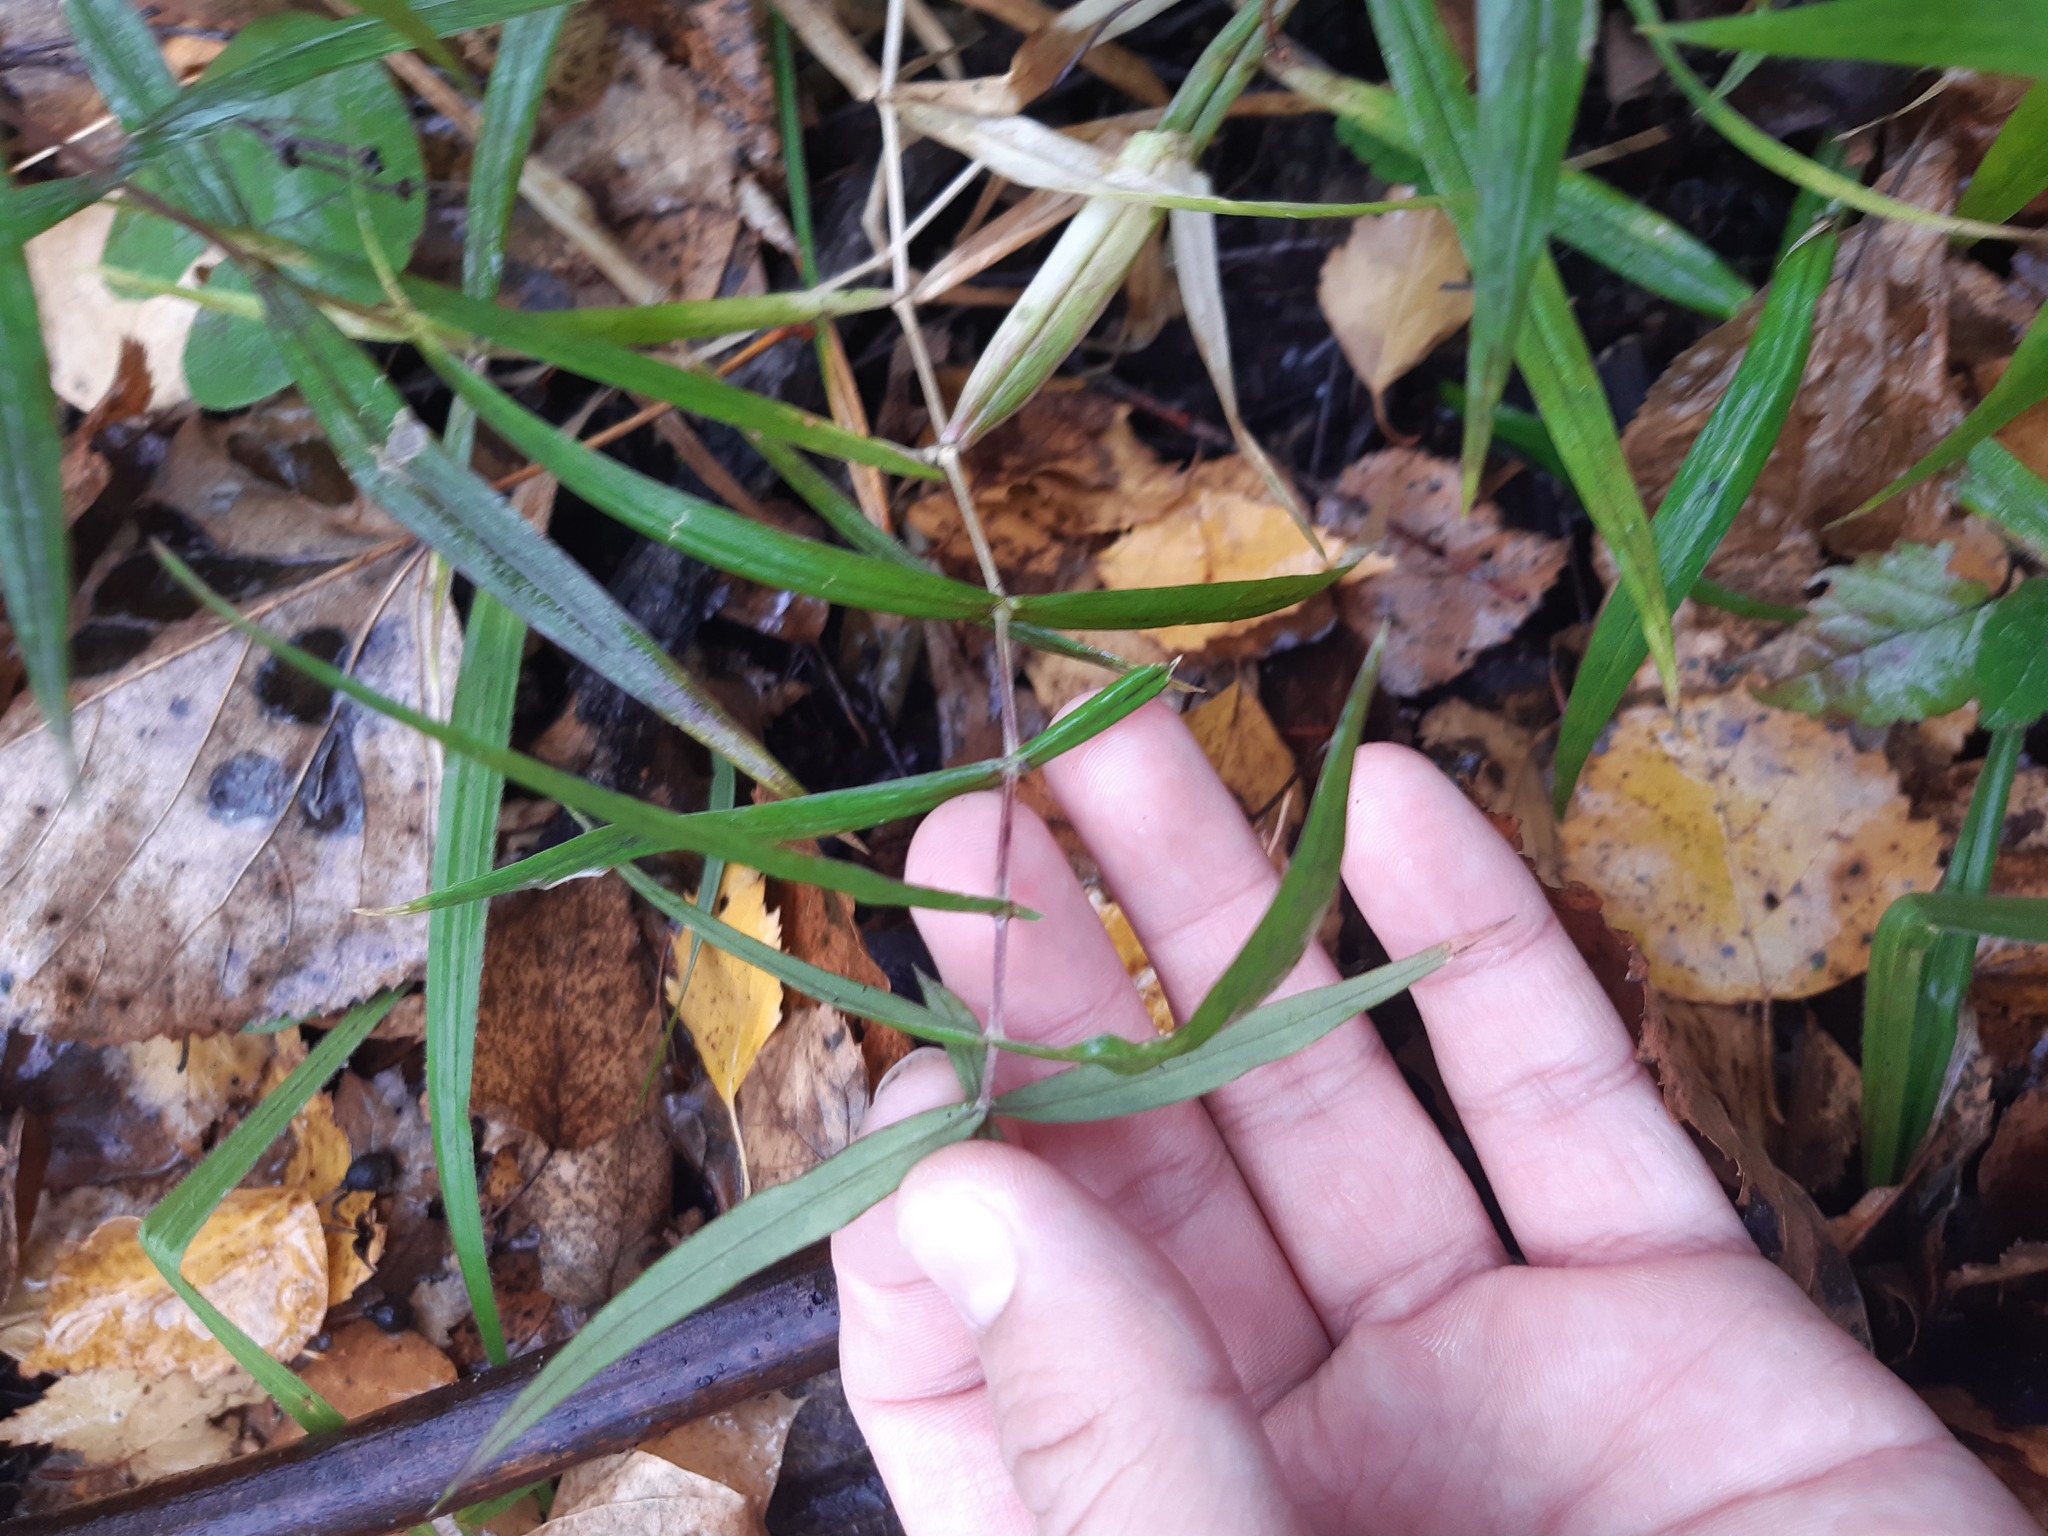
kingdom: Plantae
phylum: Tracheophyta
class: Magnoliopsida
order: Caryophyllales
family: Caryophyllaceae
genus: Rabelera
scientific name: Rabelera holostea
